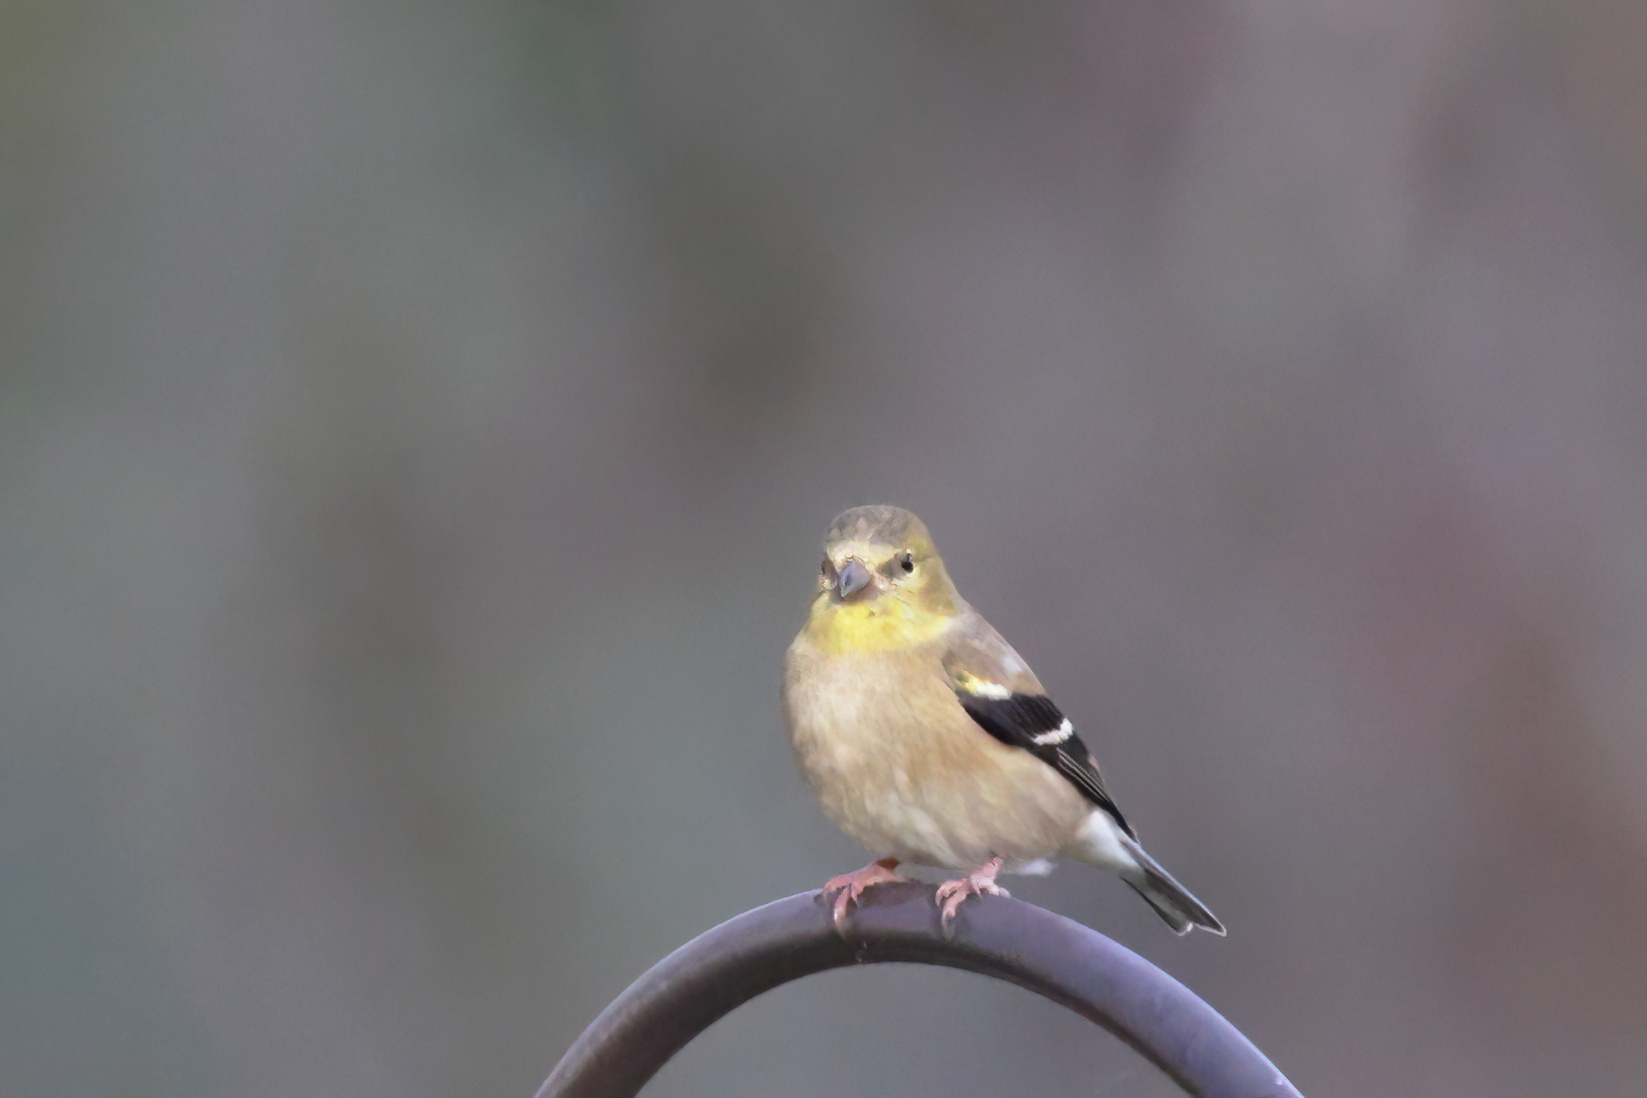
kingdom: Animalia
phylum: Chordata
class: Aves
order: Passeriformes
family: Fringillidae
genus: Spinus
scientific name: Spinus tristis
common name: American goldfinch
